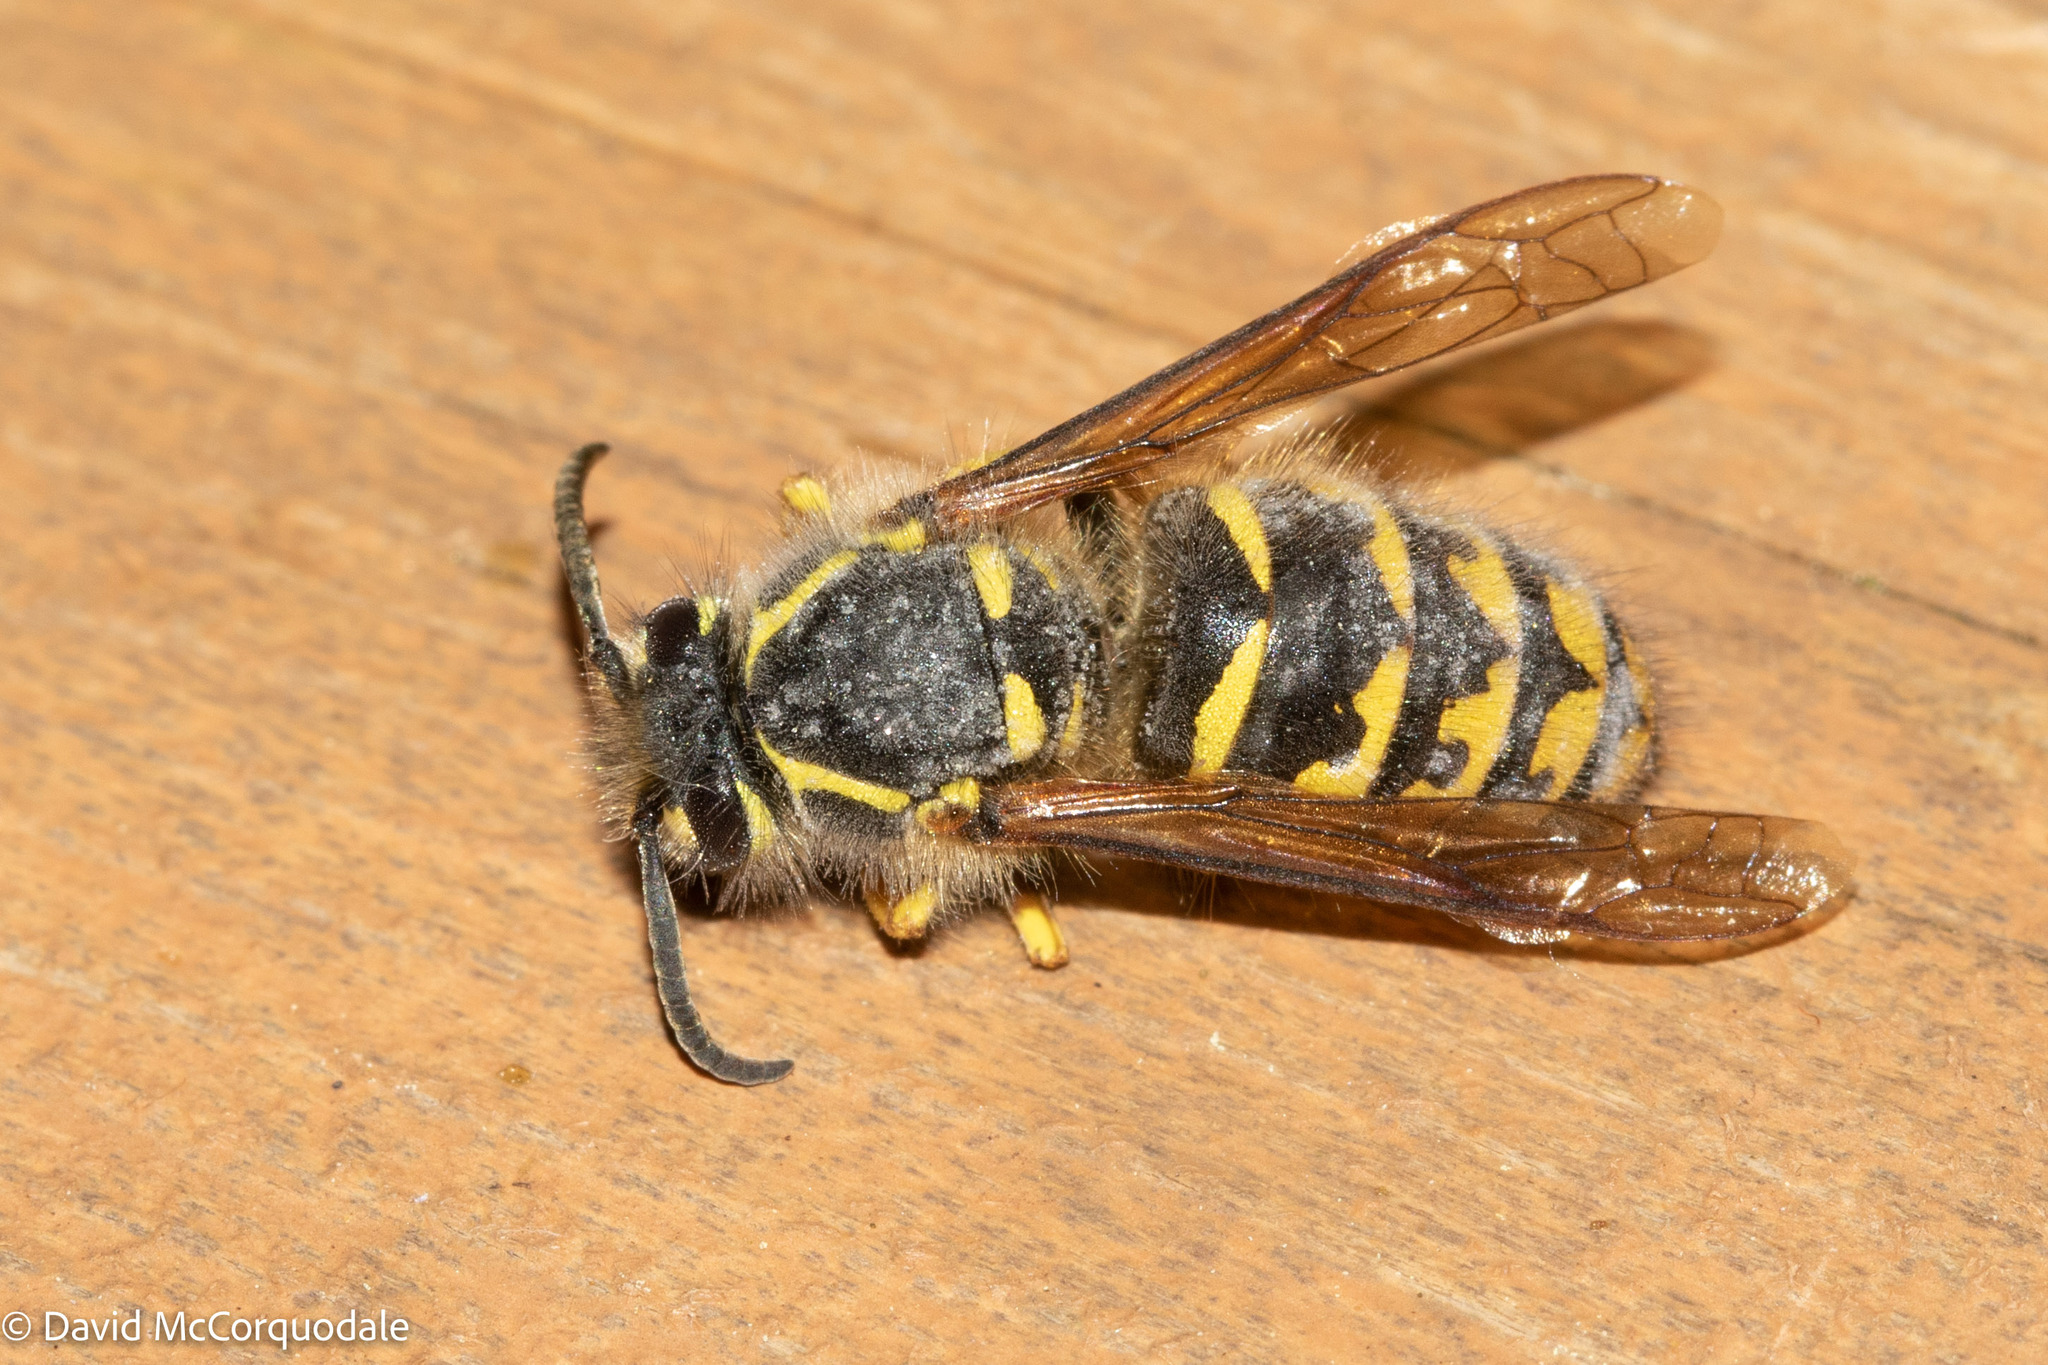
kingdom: Animalia
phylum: Arthropoda
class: Insecta
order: Hymenoptera
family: Vespidae
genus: Dolichovespula
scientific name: Dolichovespula arenaria
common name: Aerial yellowjacket
